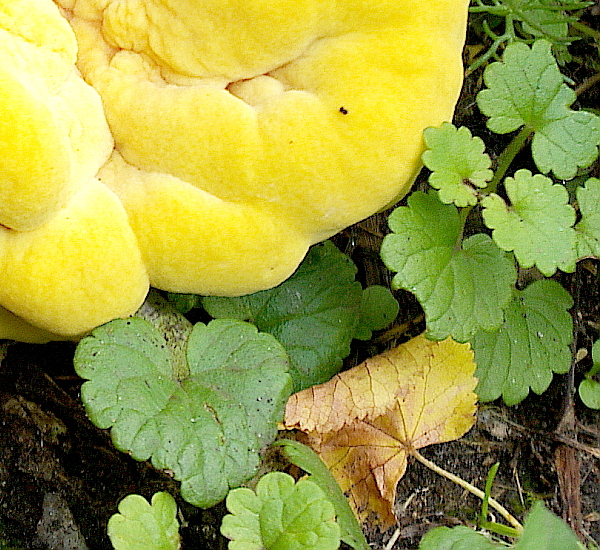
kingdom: Plantae
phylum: Tracheophyta
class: Magnoliopsida
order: Lamiales
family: Lamiaceae
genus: Glechoma
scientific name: Glechoma hederacea
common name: Ground ivy
